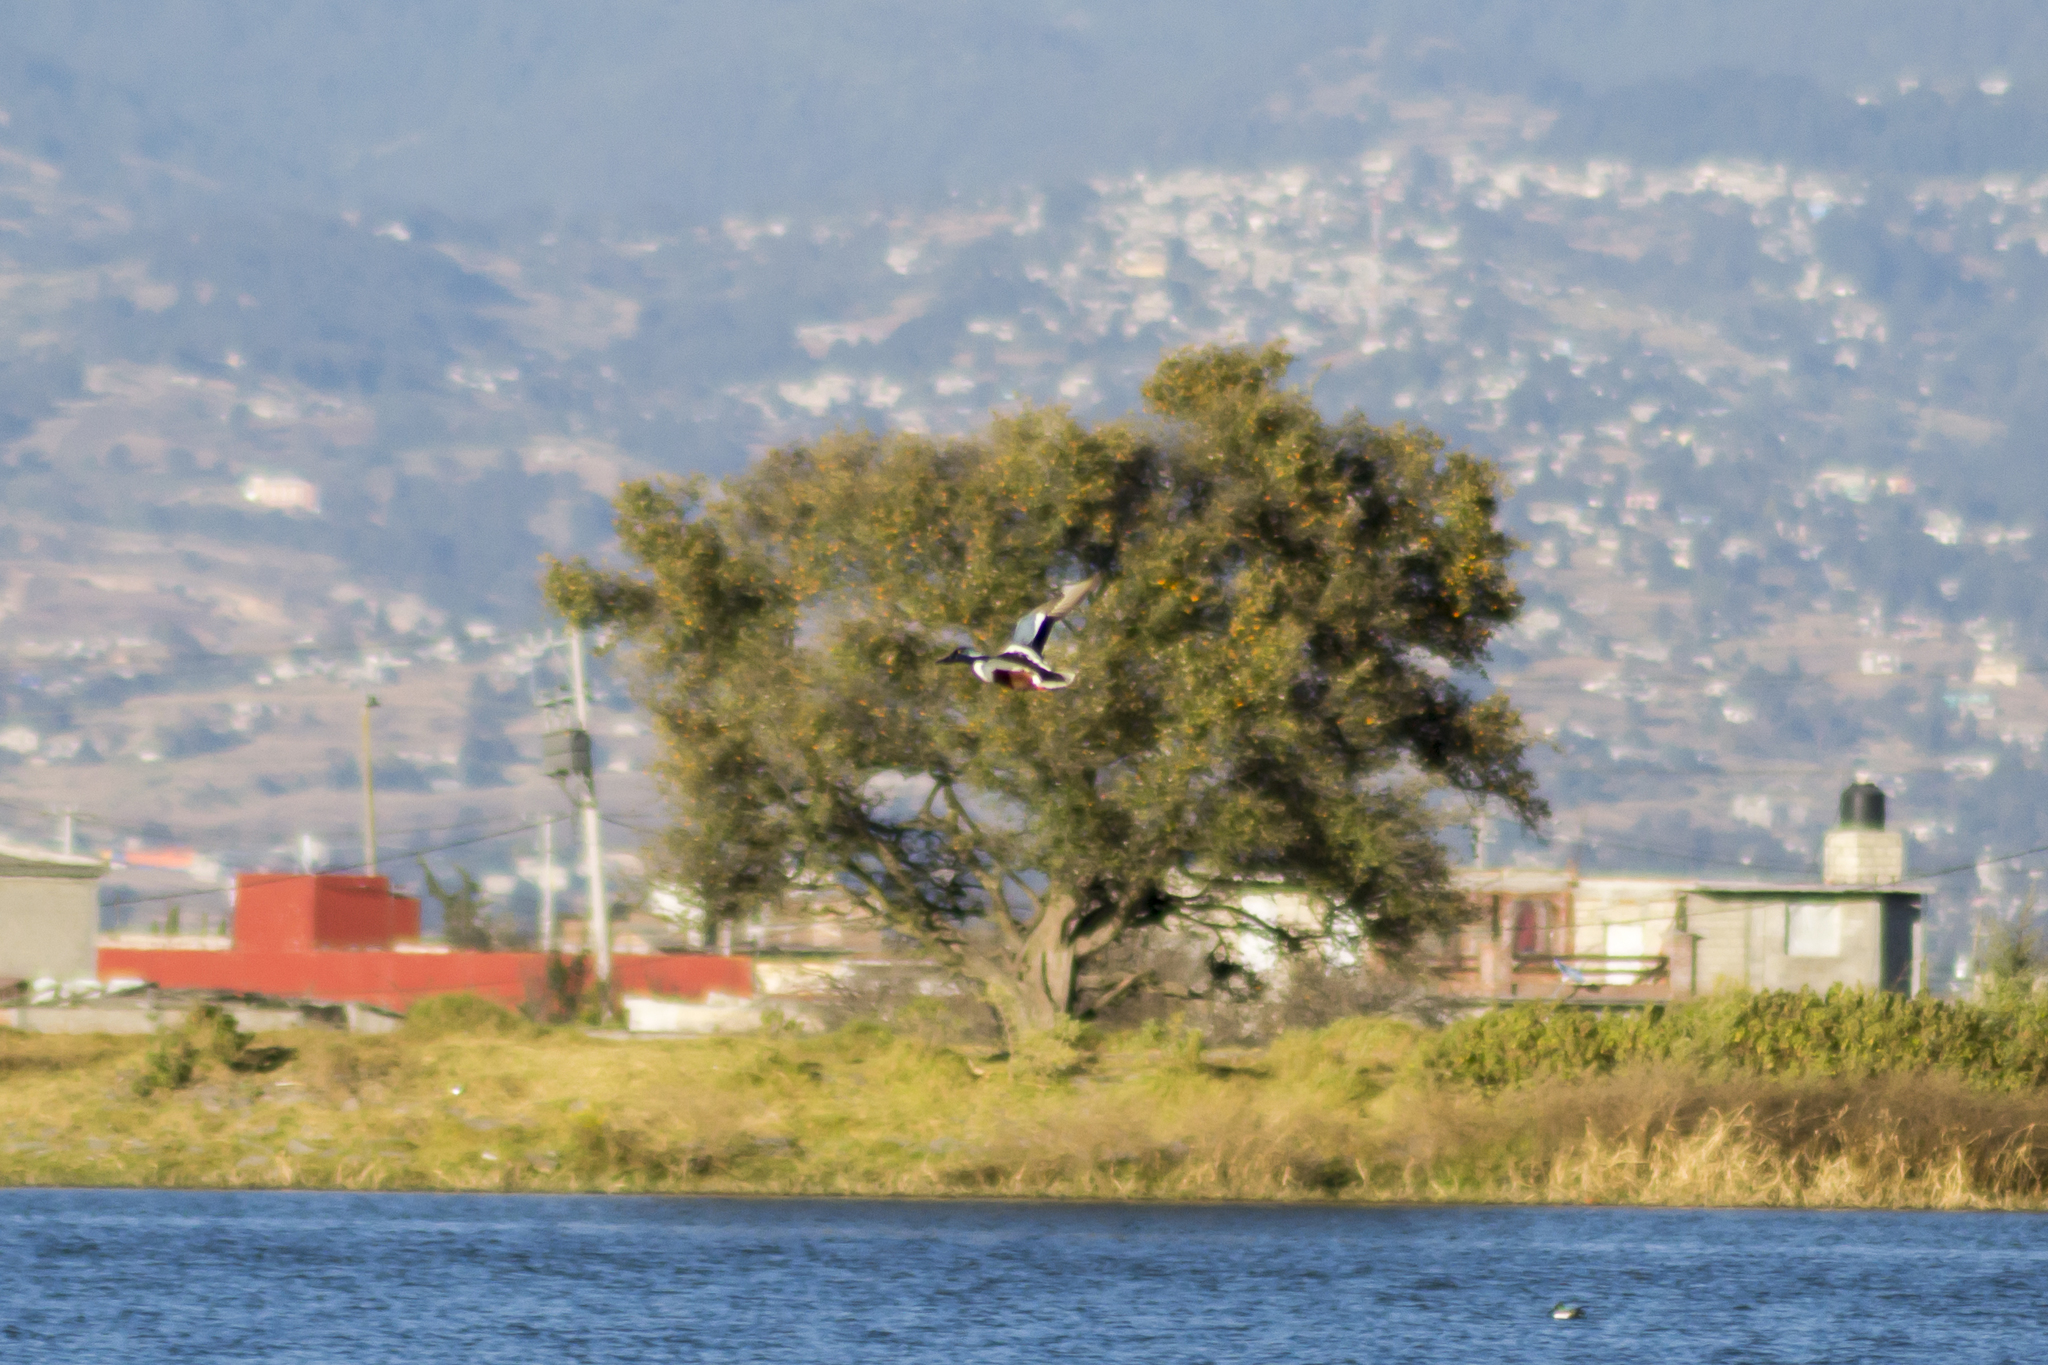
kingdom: Animalia
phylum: Chordata
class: Aves
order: Anseriformes
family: Anatidae
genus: Spatula
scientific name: Spatula clypeata
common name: Northern shoveler
